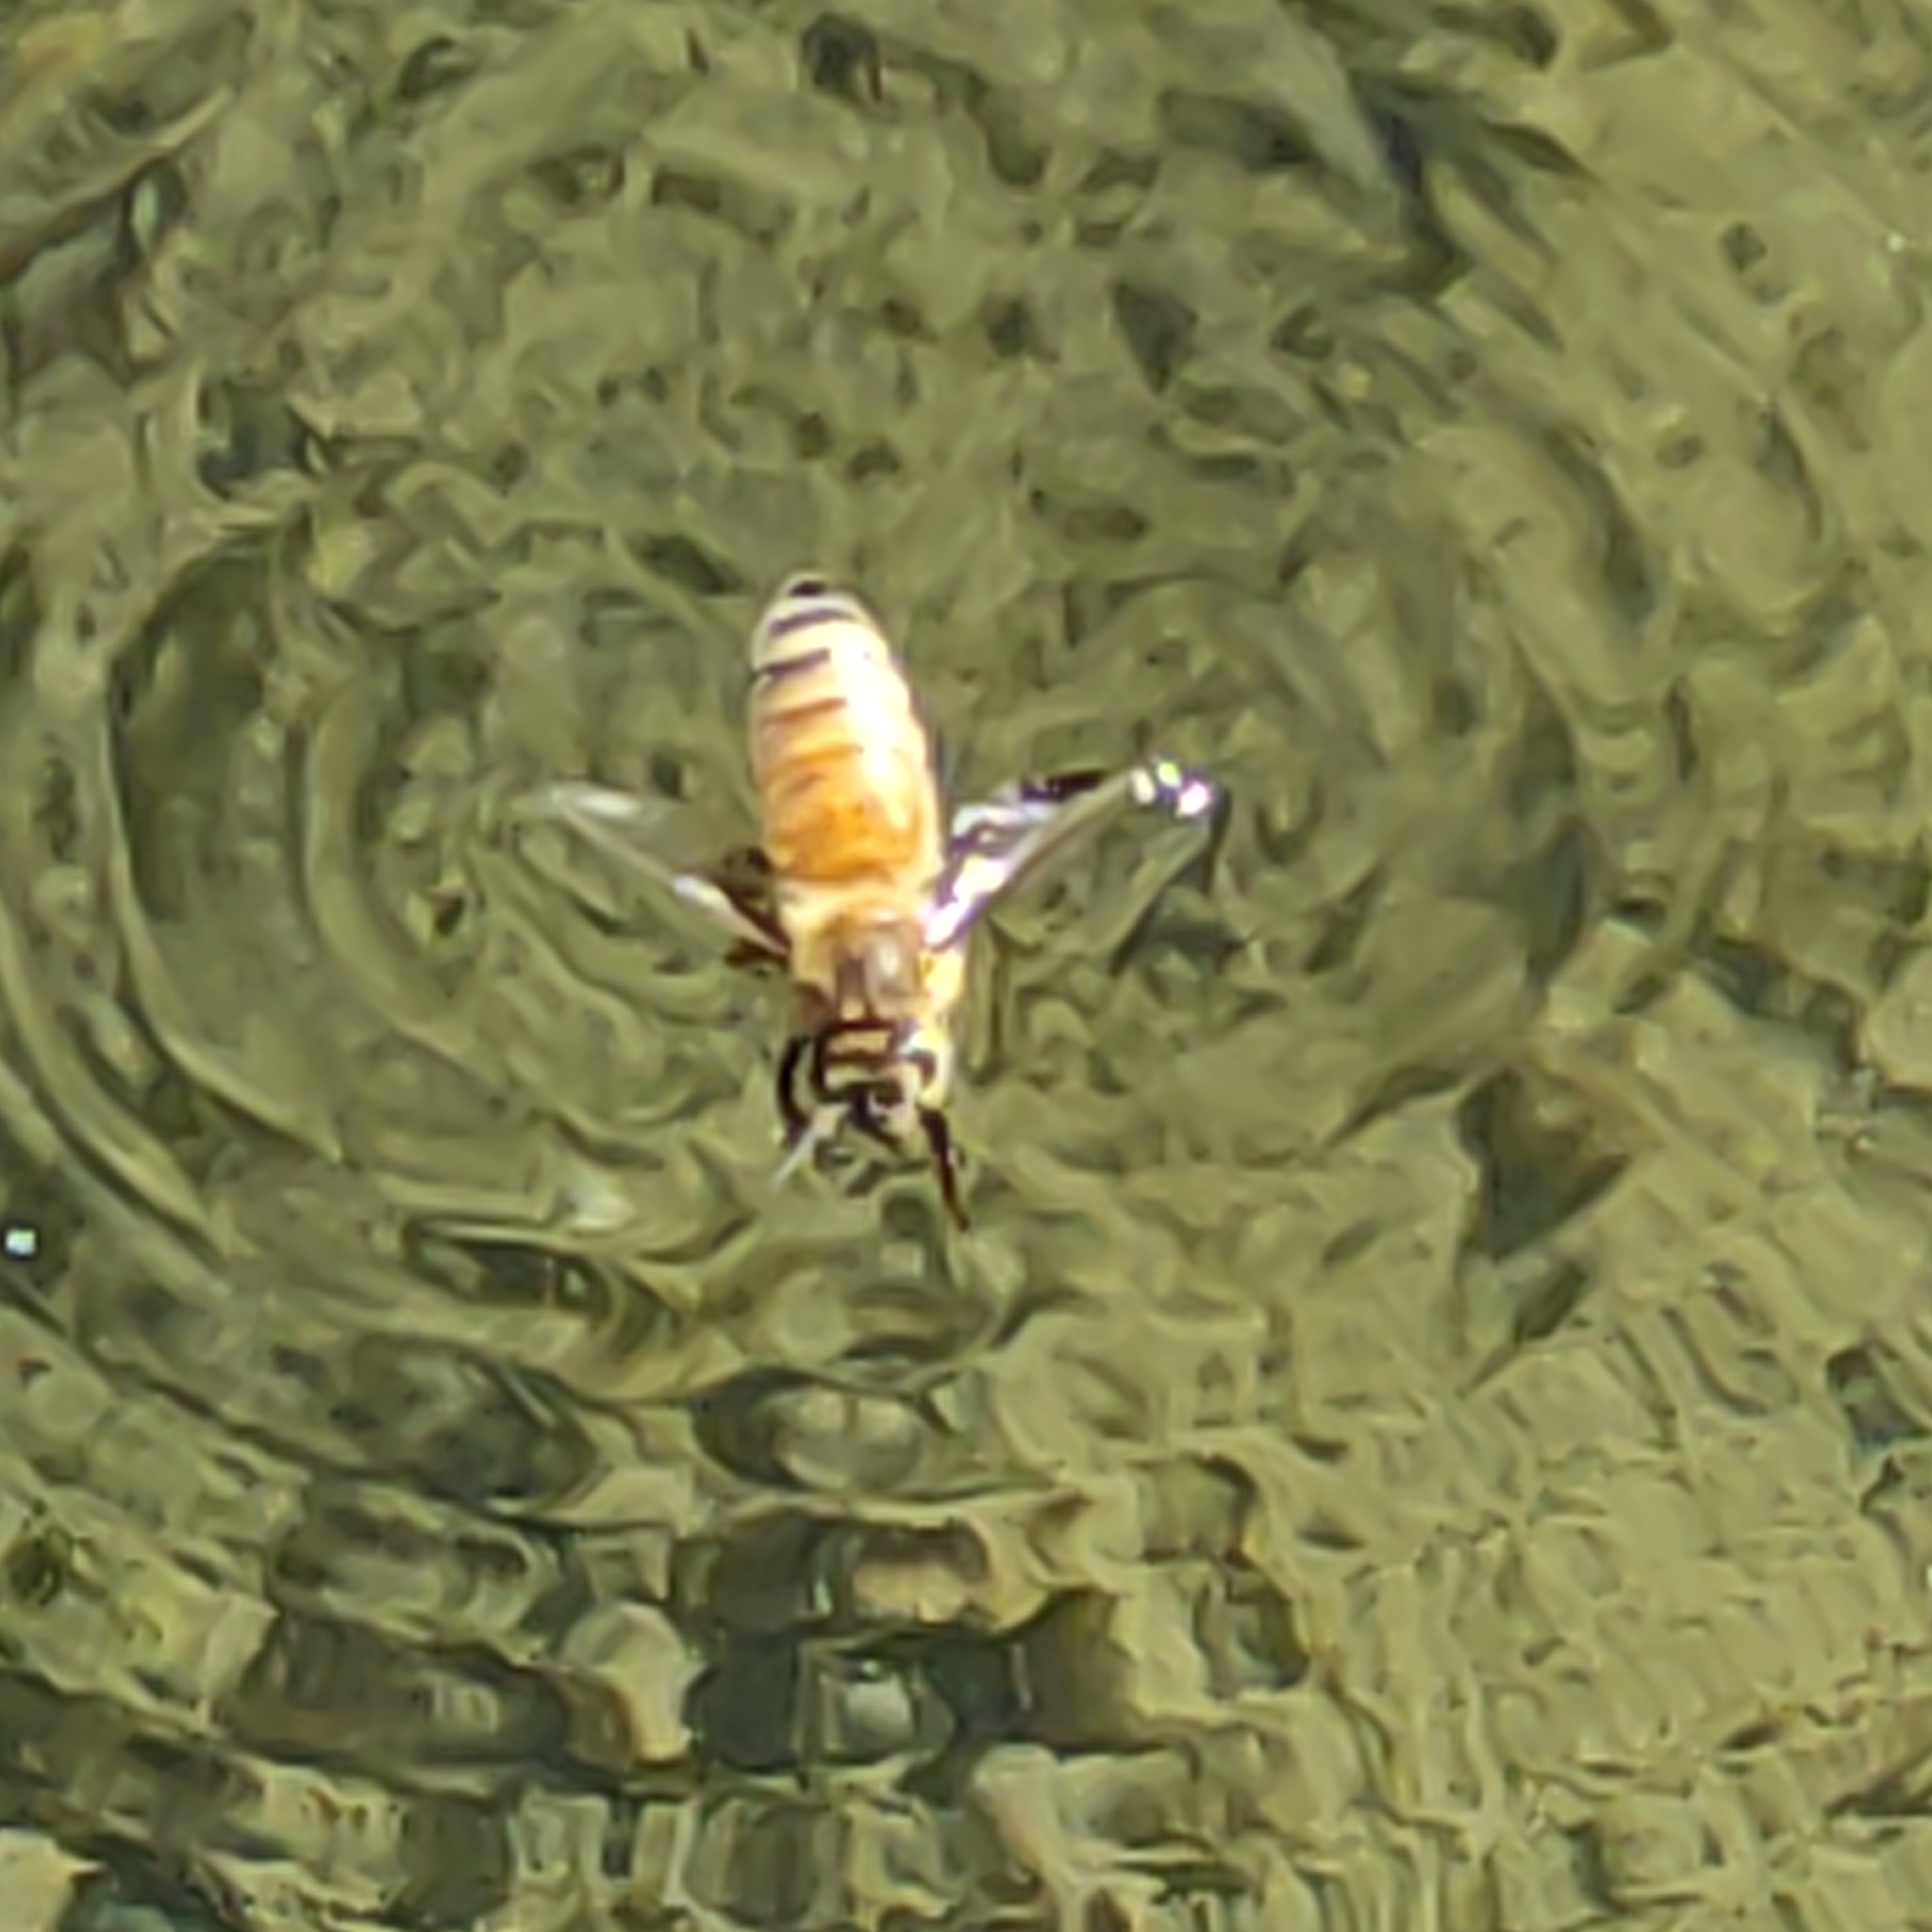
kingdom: Animalia
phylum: Arthropoda
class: Insecta
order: Hymenoptera
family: Apidae
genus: Apis
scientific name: Apis mellifera
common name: Honey bee
